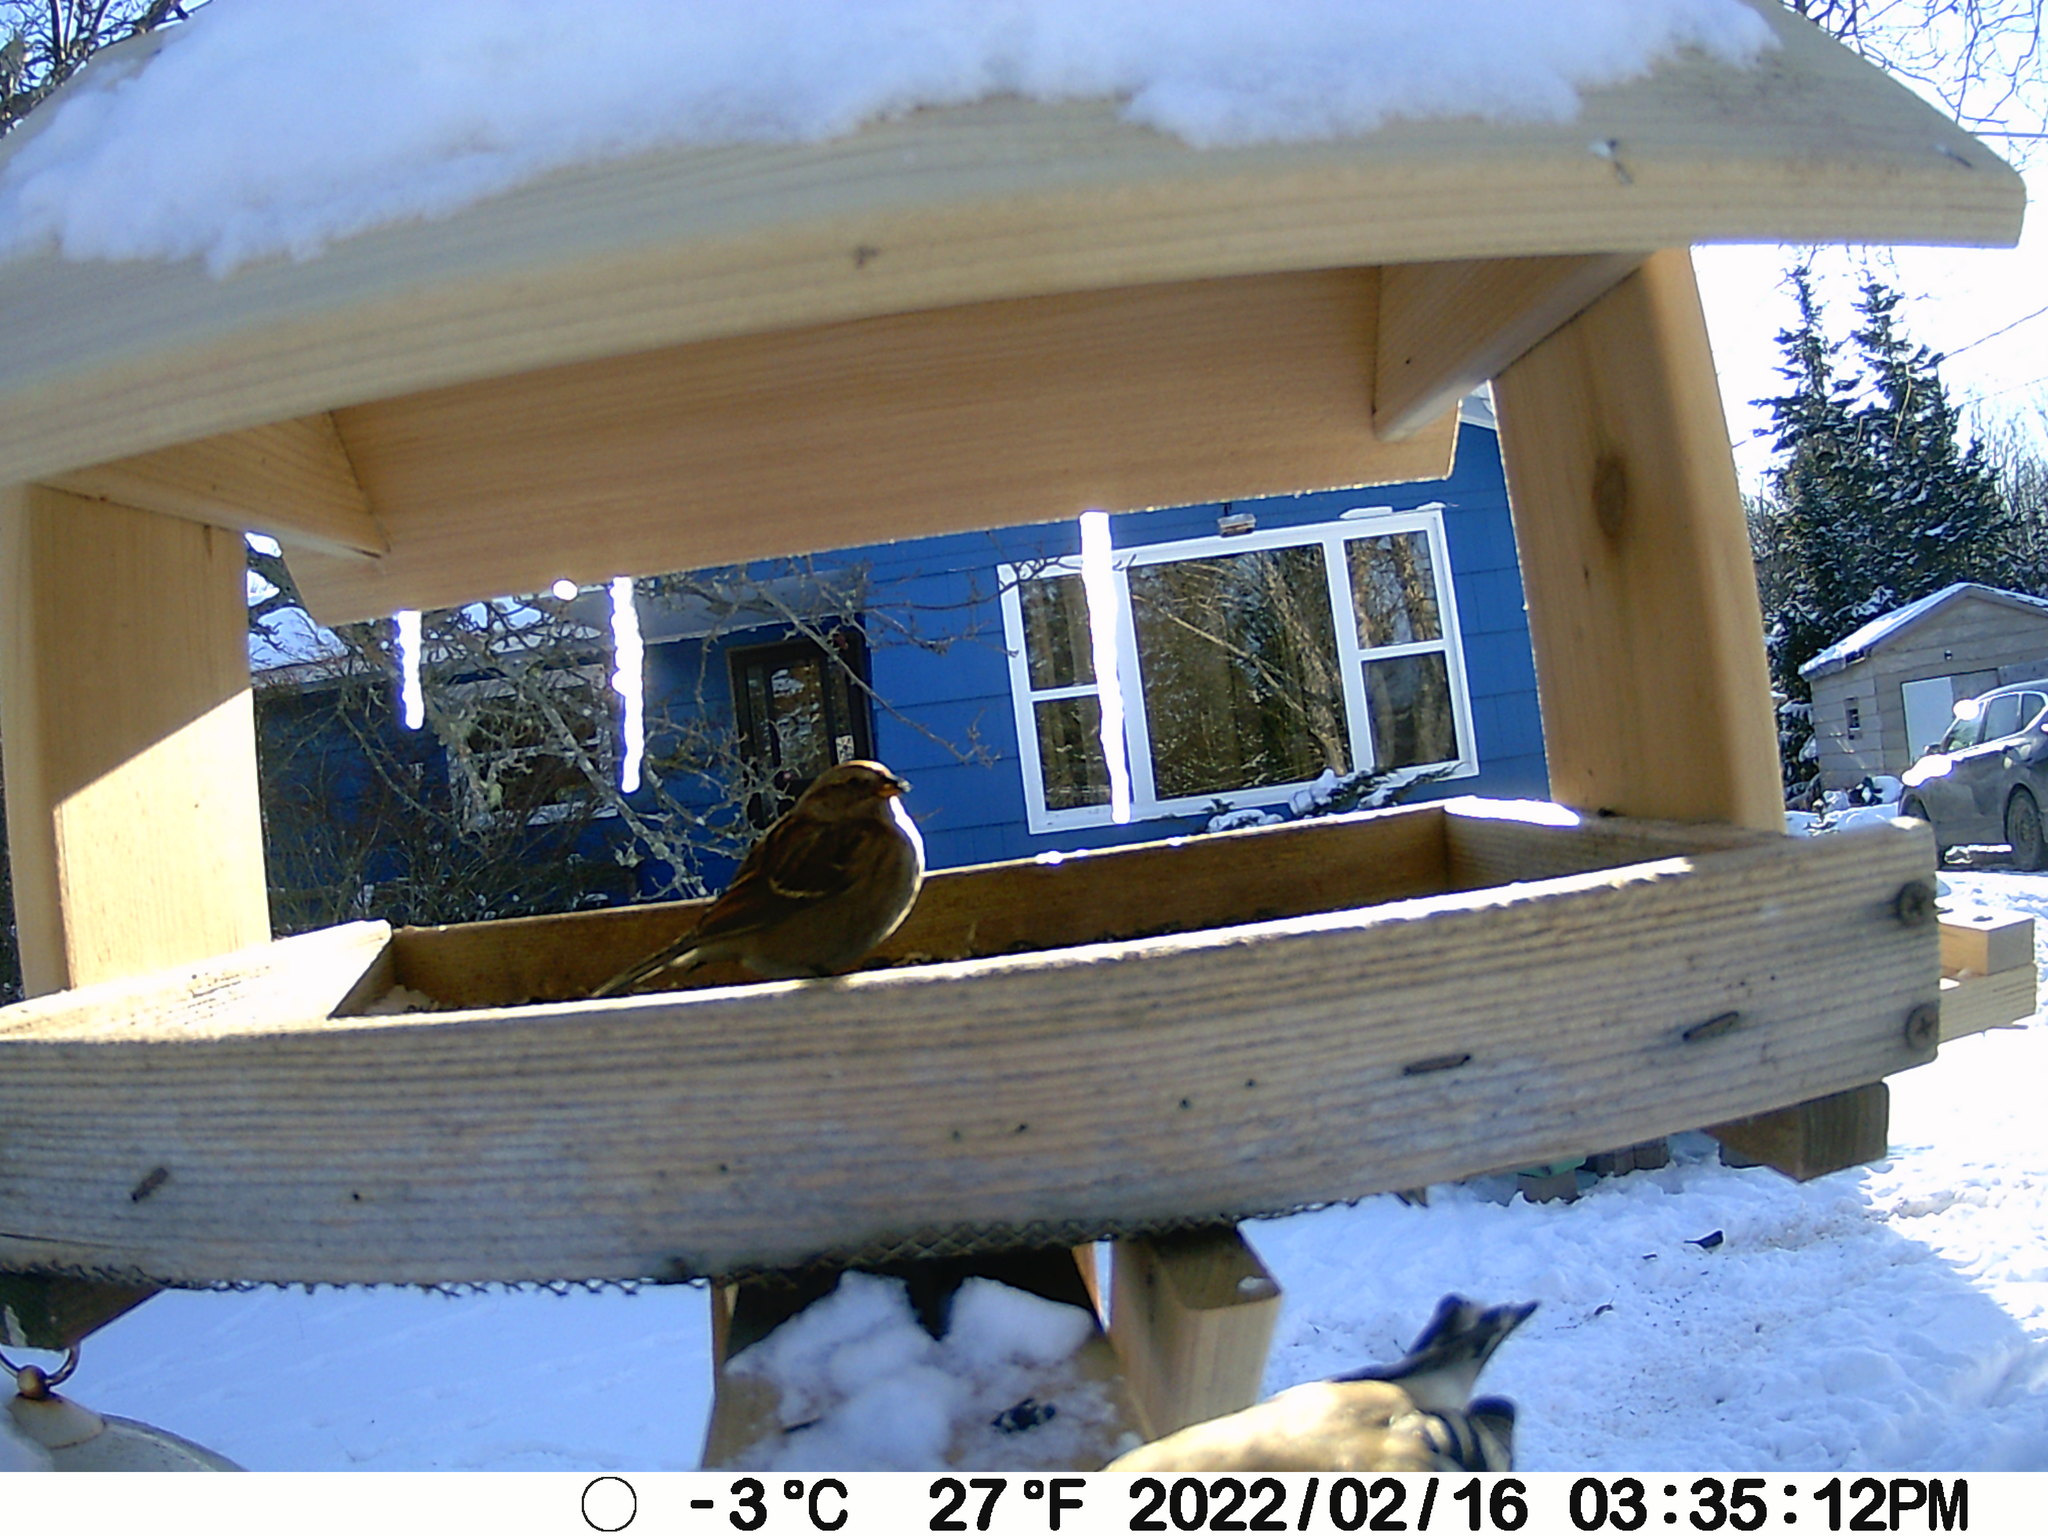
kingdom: Animalia
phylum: Chordata
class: Aves
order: Passeriformes
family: Passerellidae
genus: Spizelloides
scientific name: Spizelloides arborea
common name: American tree sparrow
